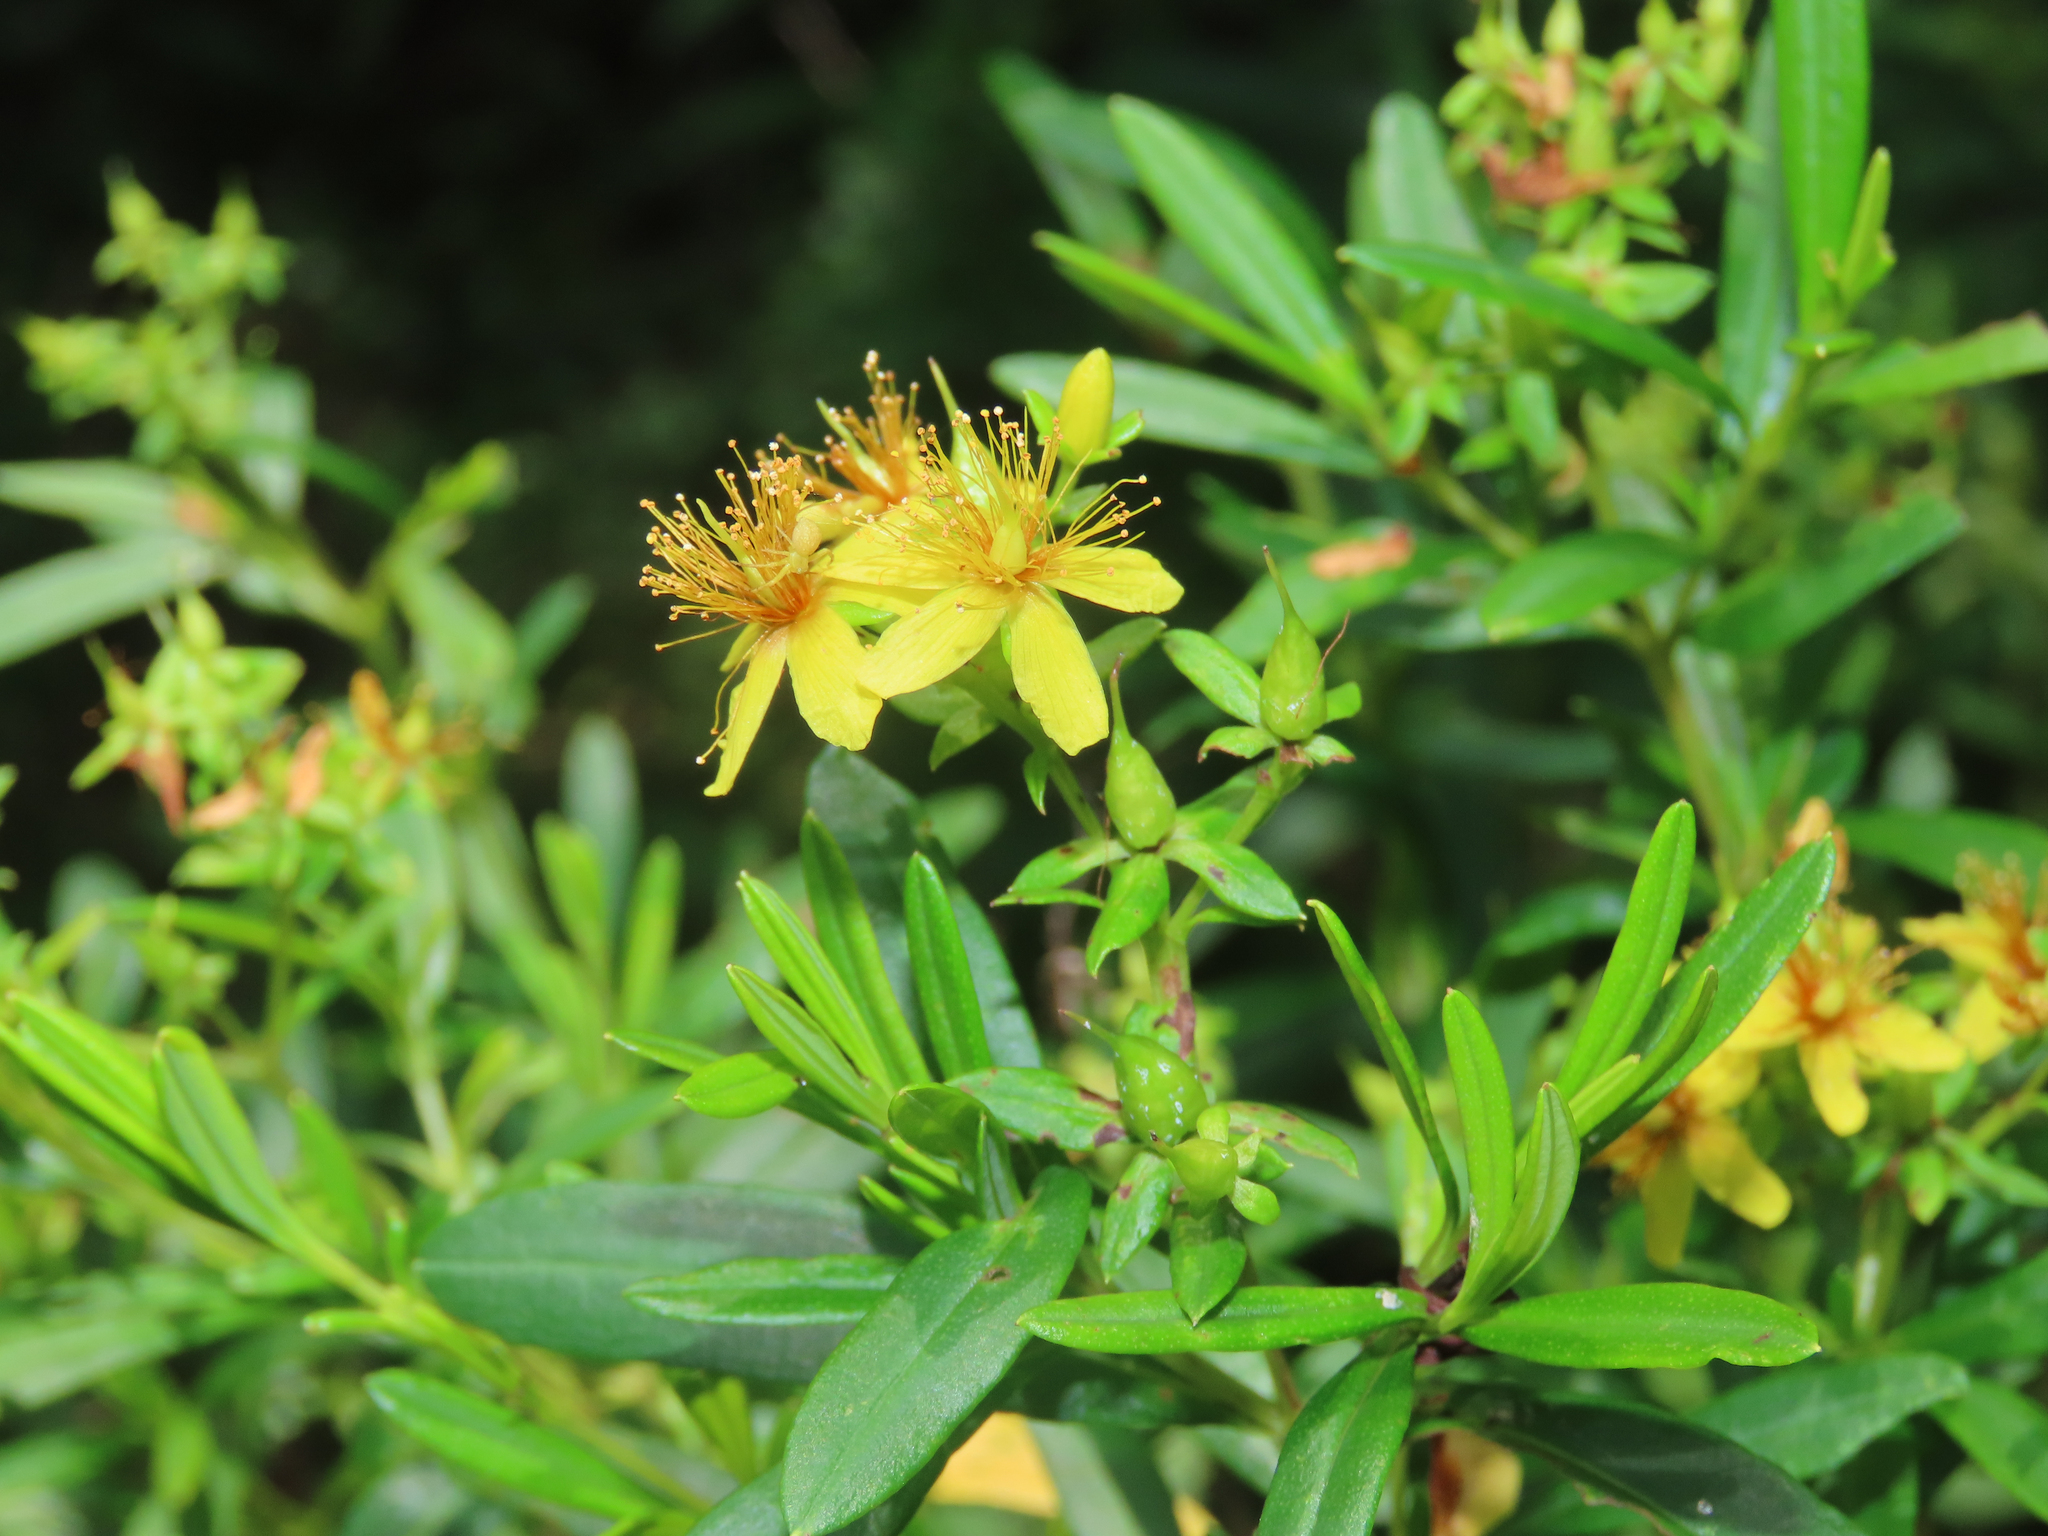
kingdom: Plantae
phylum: Tracheophyta
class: Magnoliopsida
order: Malpighiales
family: Hypericaceae
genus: Hypericum
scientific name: Hypericum prolificum
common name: Shrubby st. john's-wort
